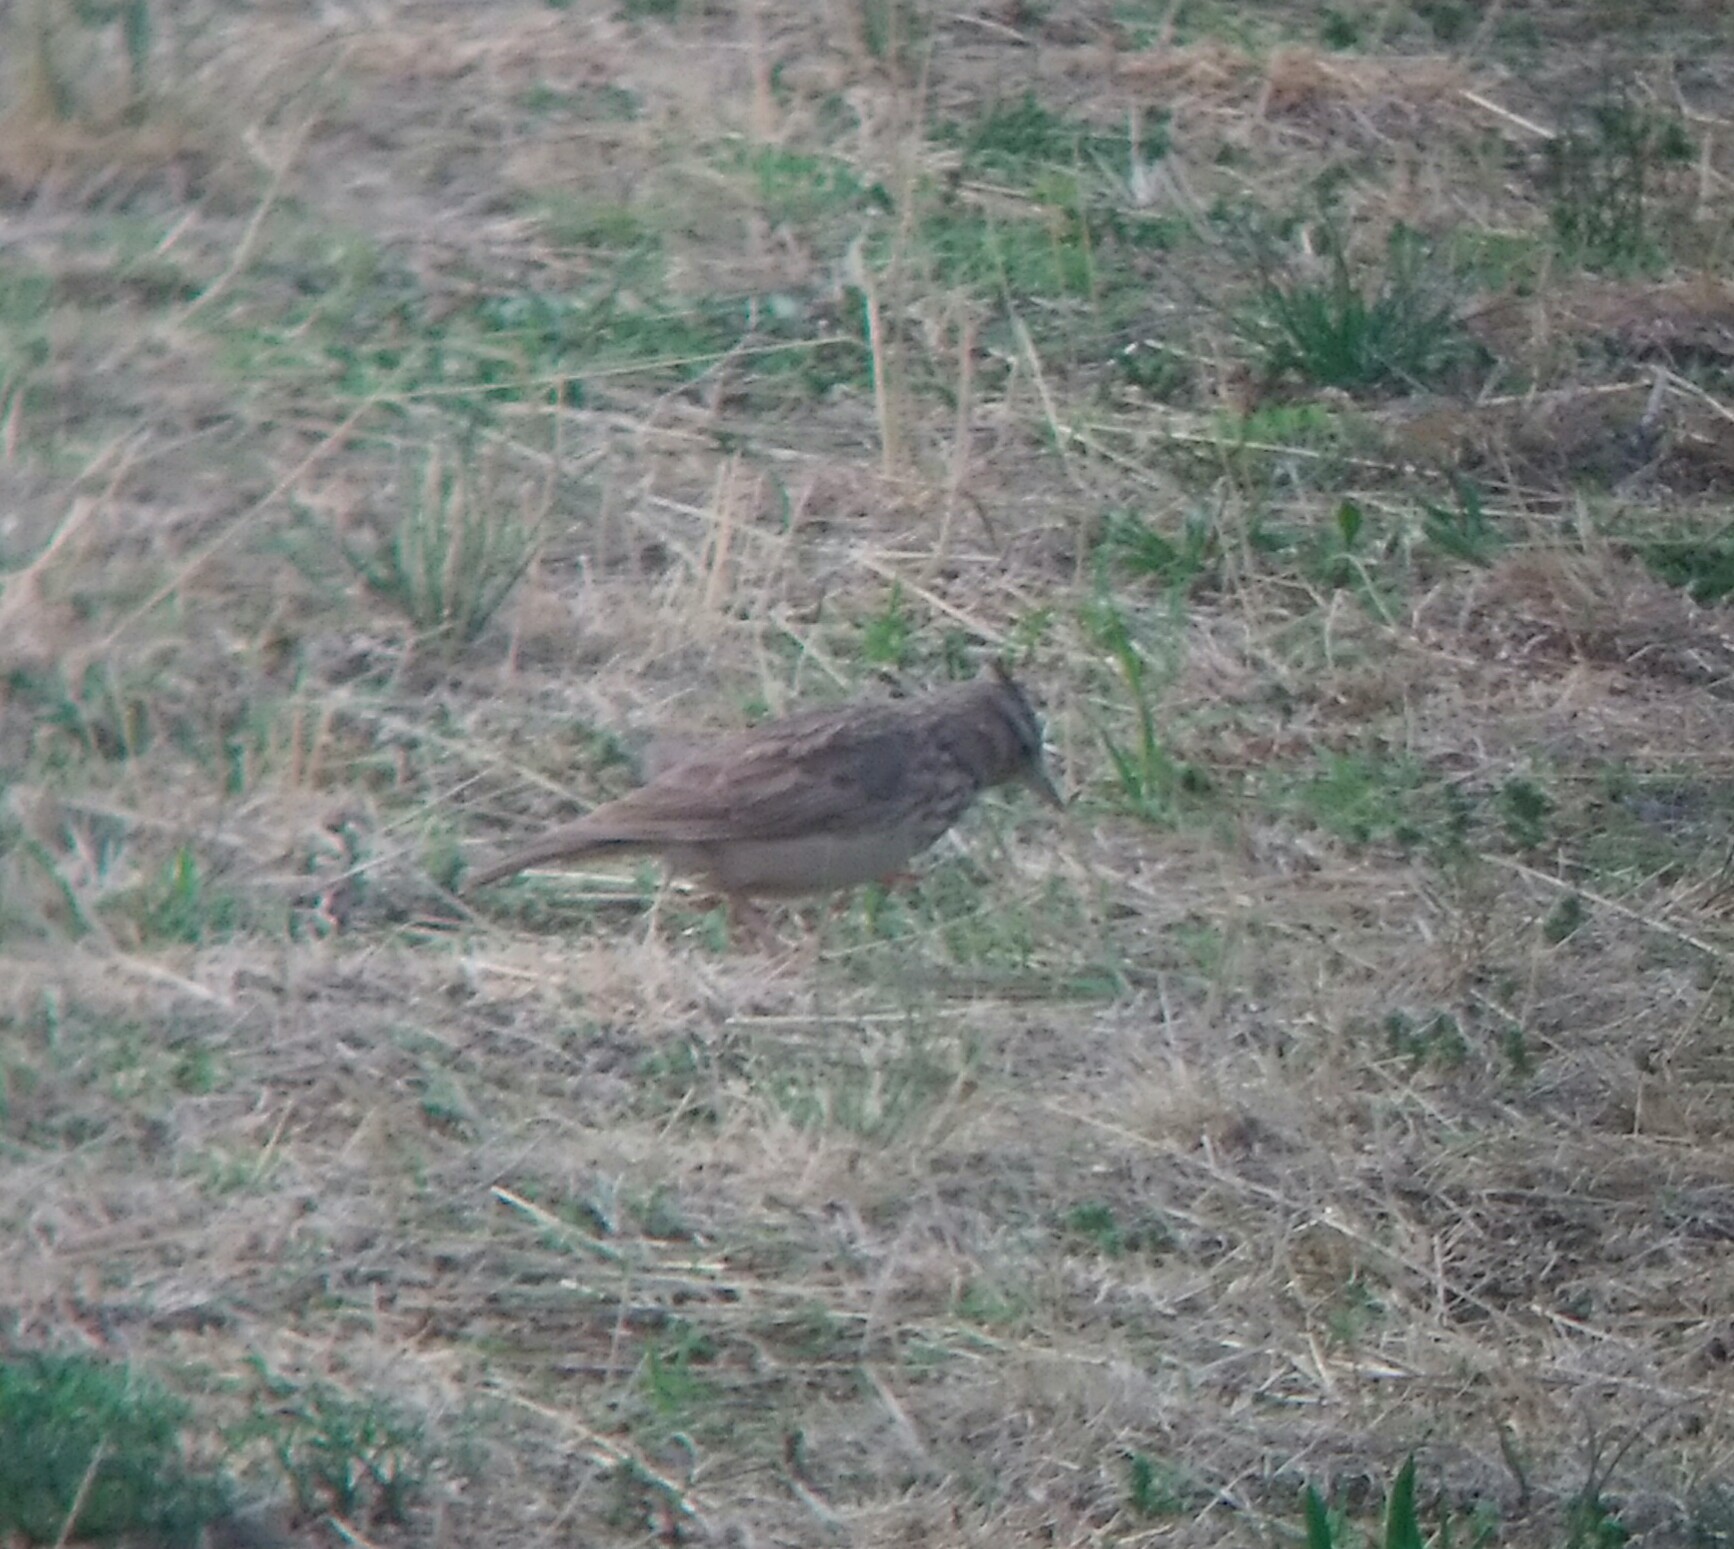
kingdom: Animalia
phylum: Chordata
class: Aves
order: Passeriformes
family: Alaudidae
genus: Galerida
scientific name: Galerida cristata
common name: Crested lark
